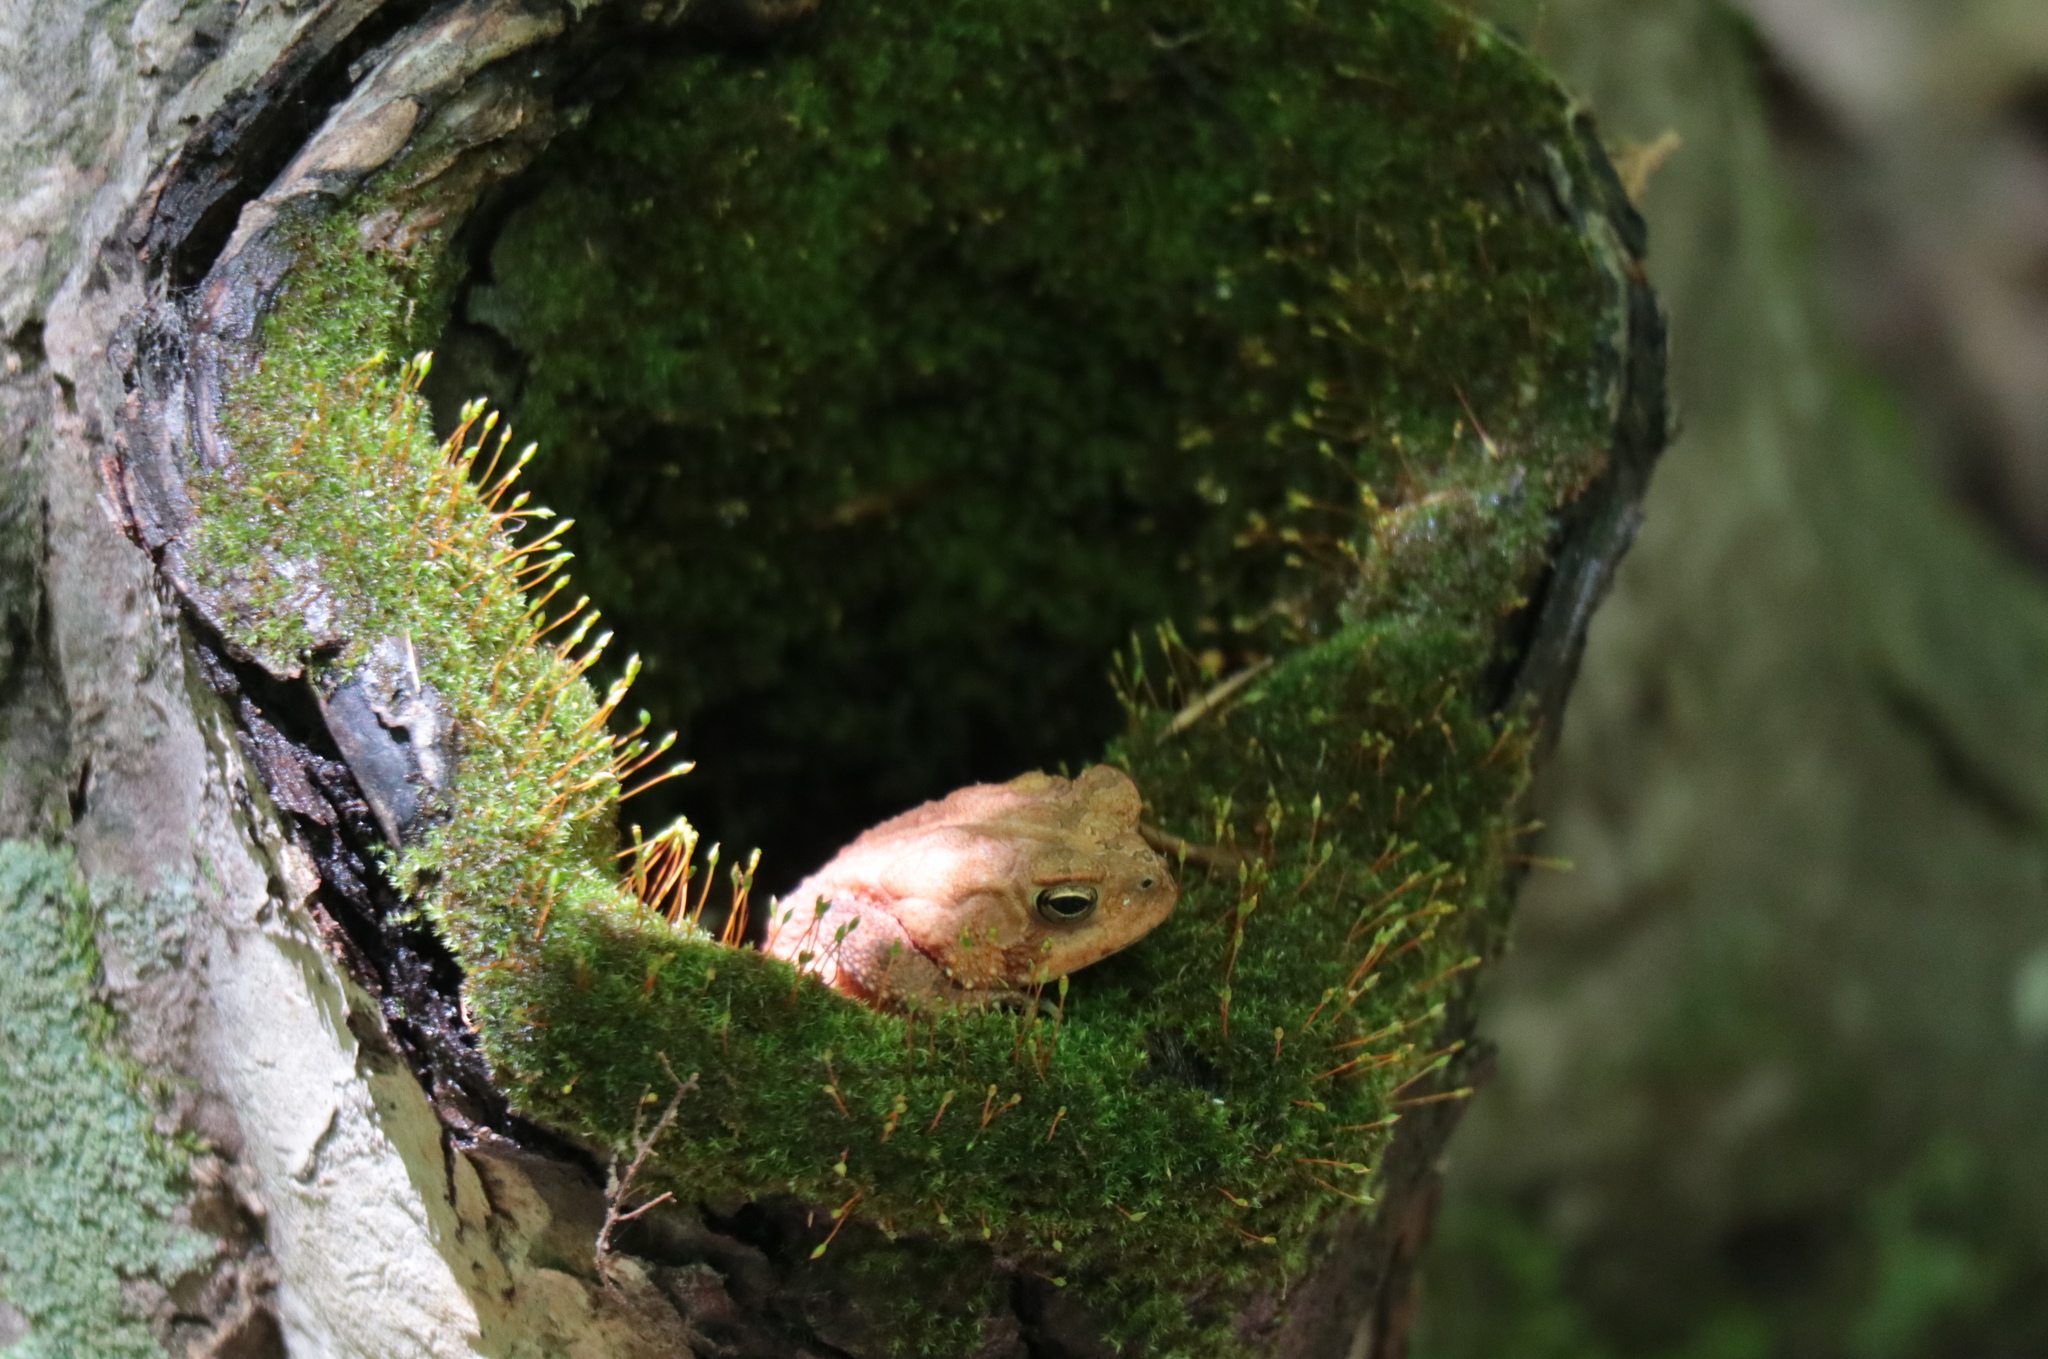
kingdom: Animalia
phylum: Chordata
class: Amphibia
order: Anura
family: Bufonidae
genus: Anaxyrus
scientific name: Anaxyrus americanus
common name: American toad
